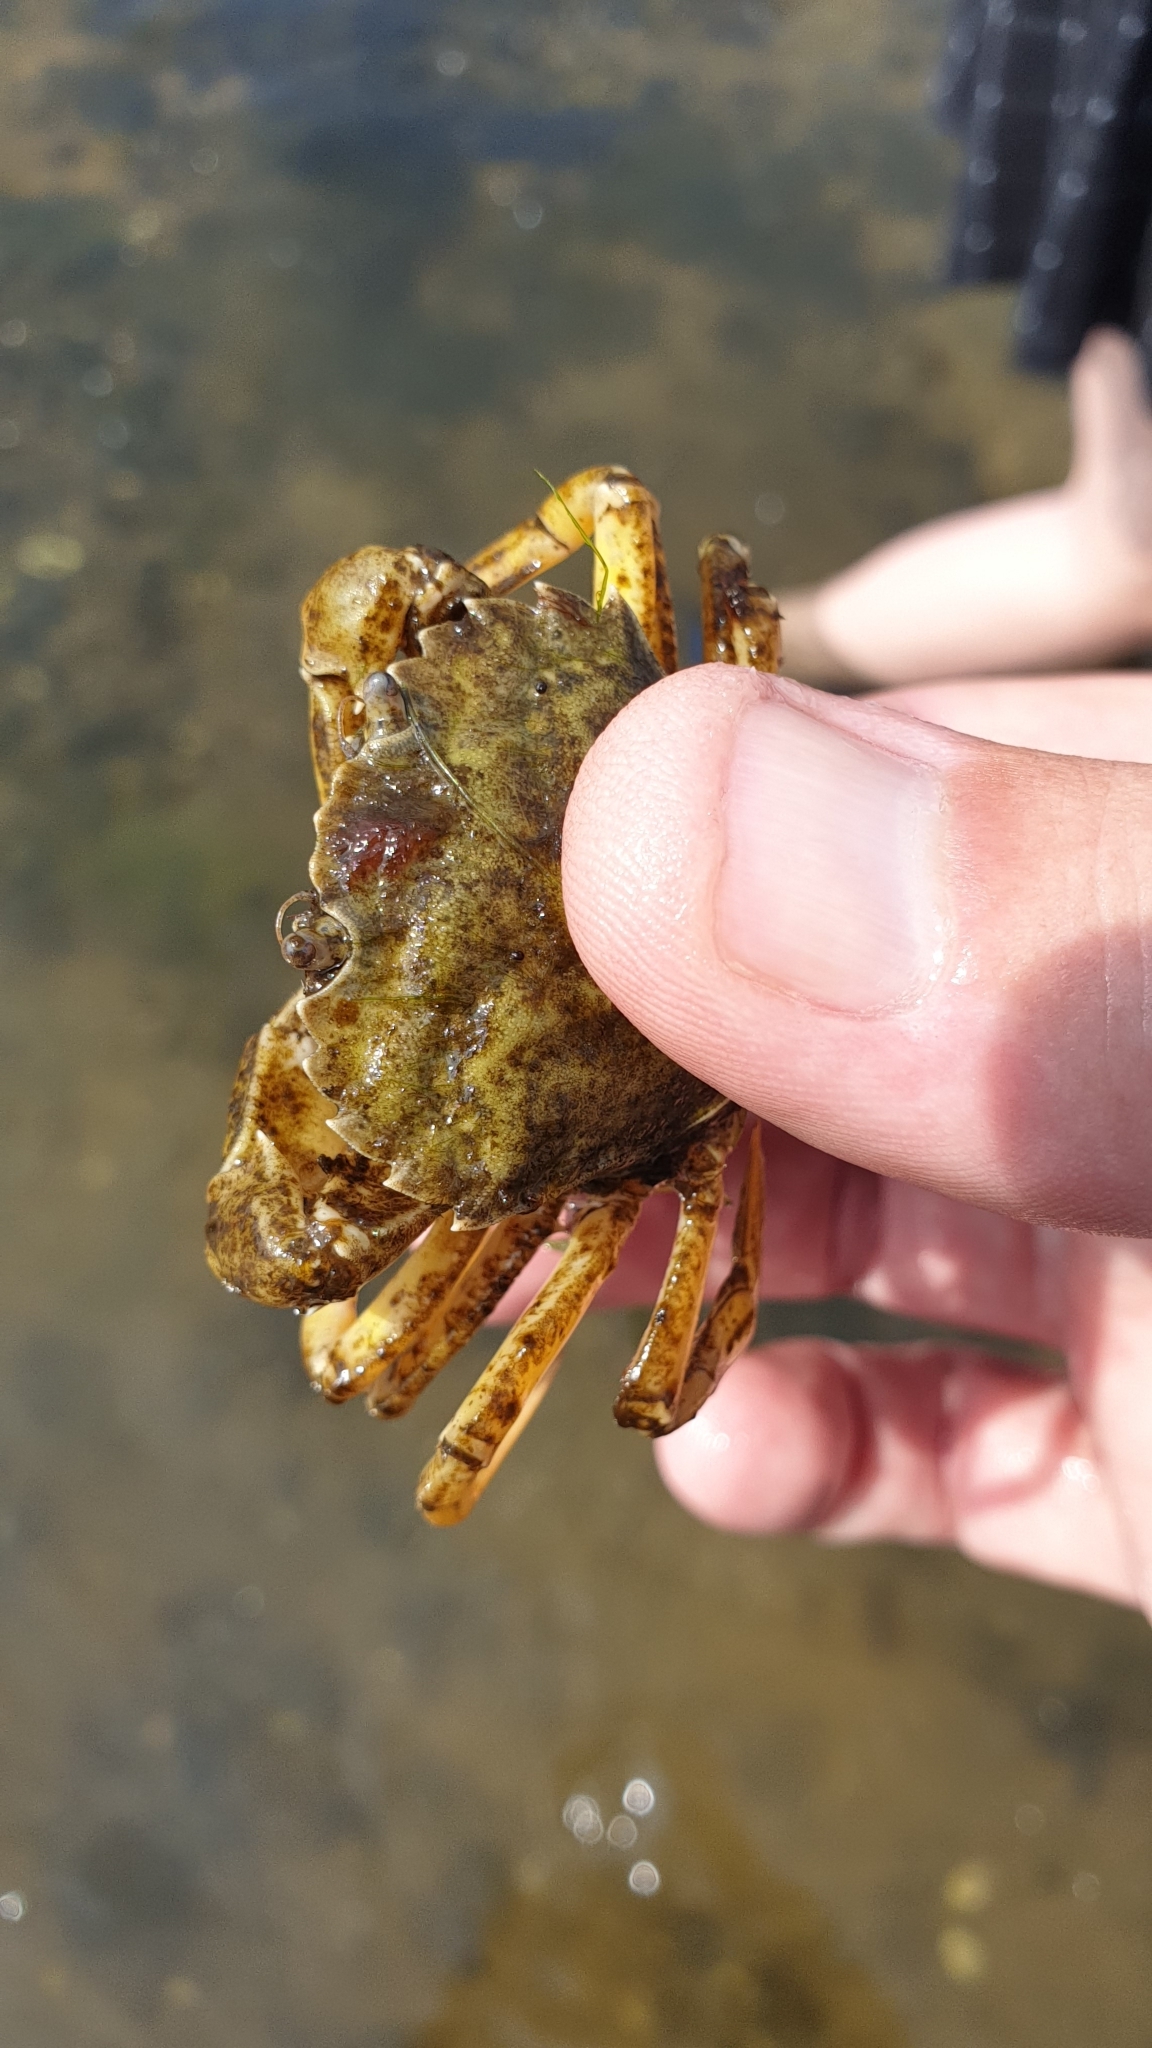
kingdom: Animalia
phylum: Arthropoda
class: Malacostraca
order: Decapoda
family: Carcinidae
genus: Carcinus
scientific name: Carcinus maenas
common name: European green crab
